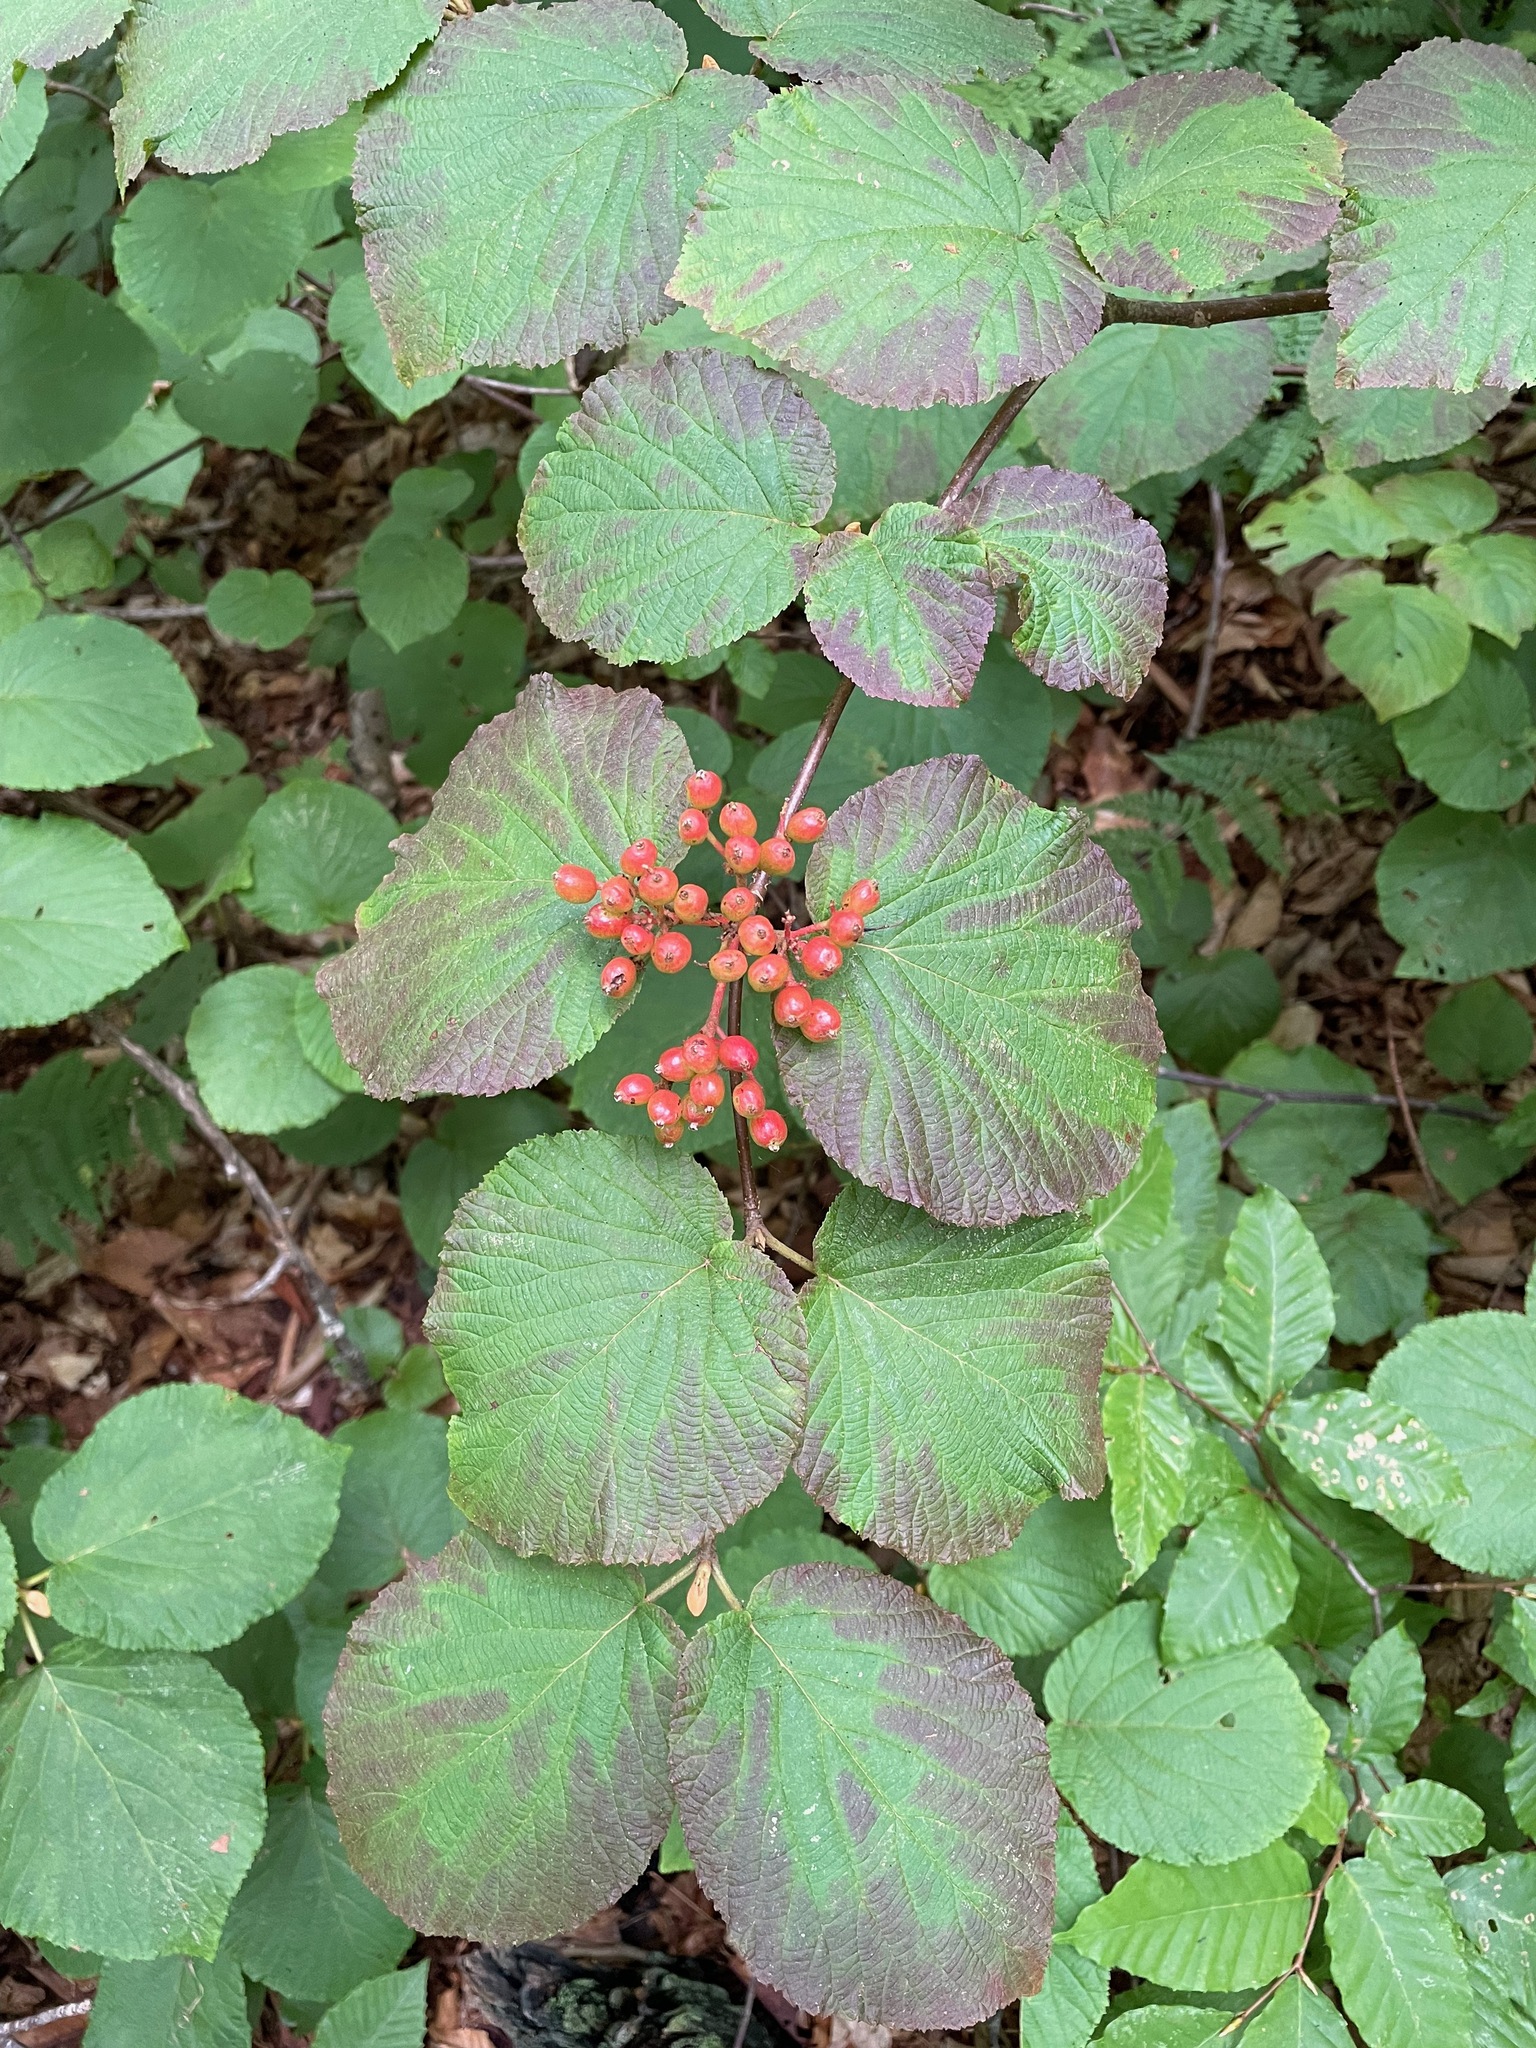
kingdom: Plantae
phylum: Tracheophyta
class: Magnoliopsida
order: Dipsacales
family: Viburnaceae
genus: Viburnum
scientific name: Viburnum lantanoides
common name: Hobblebush
